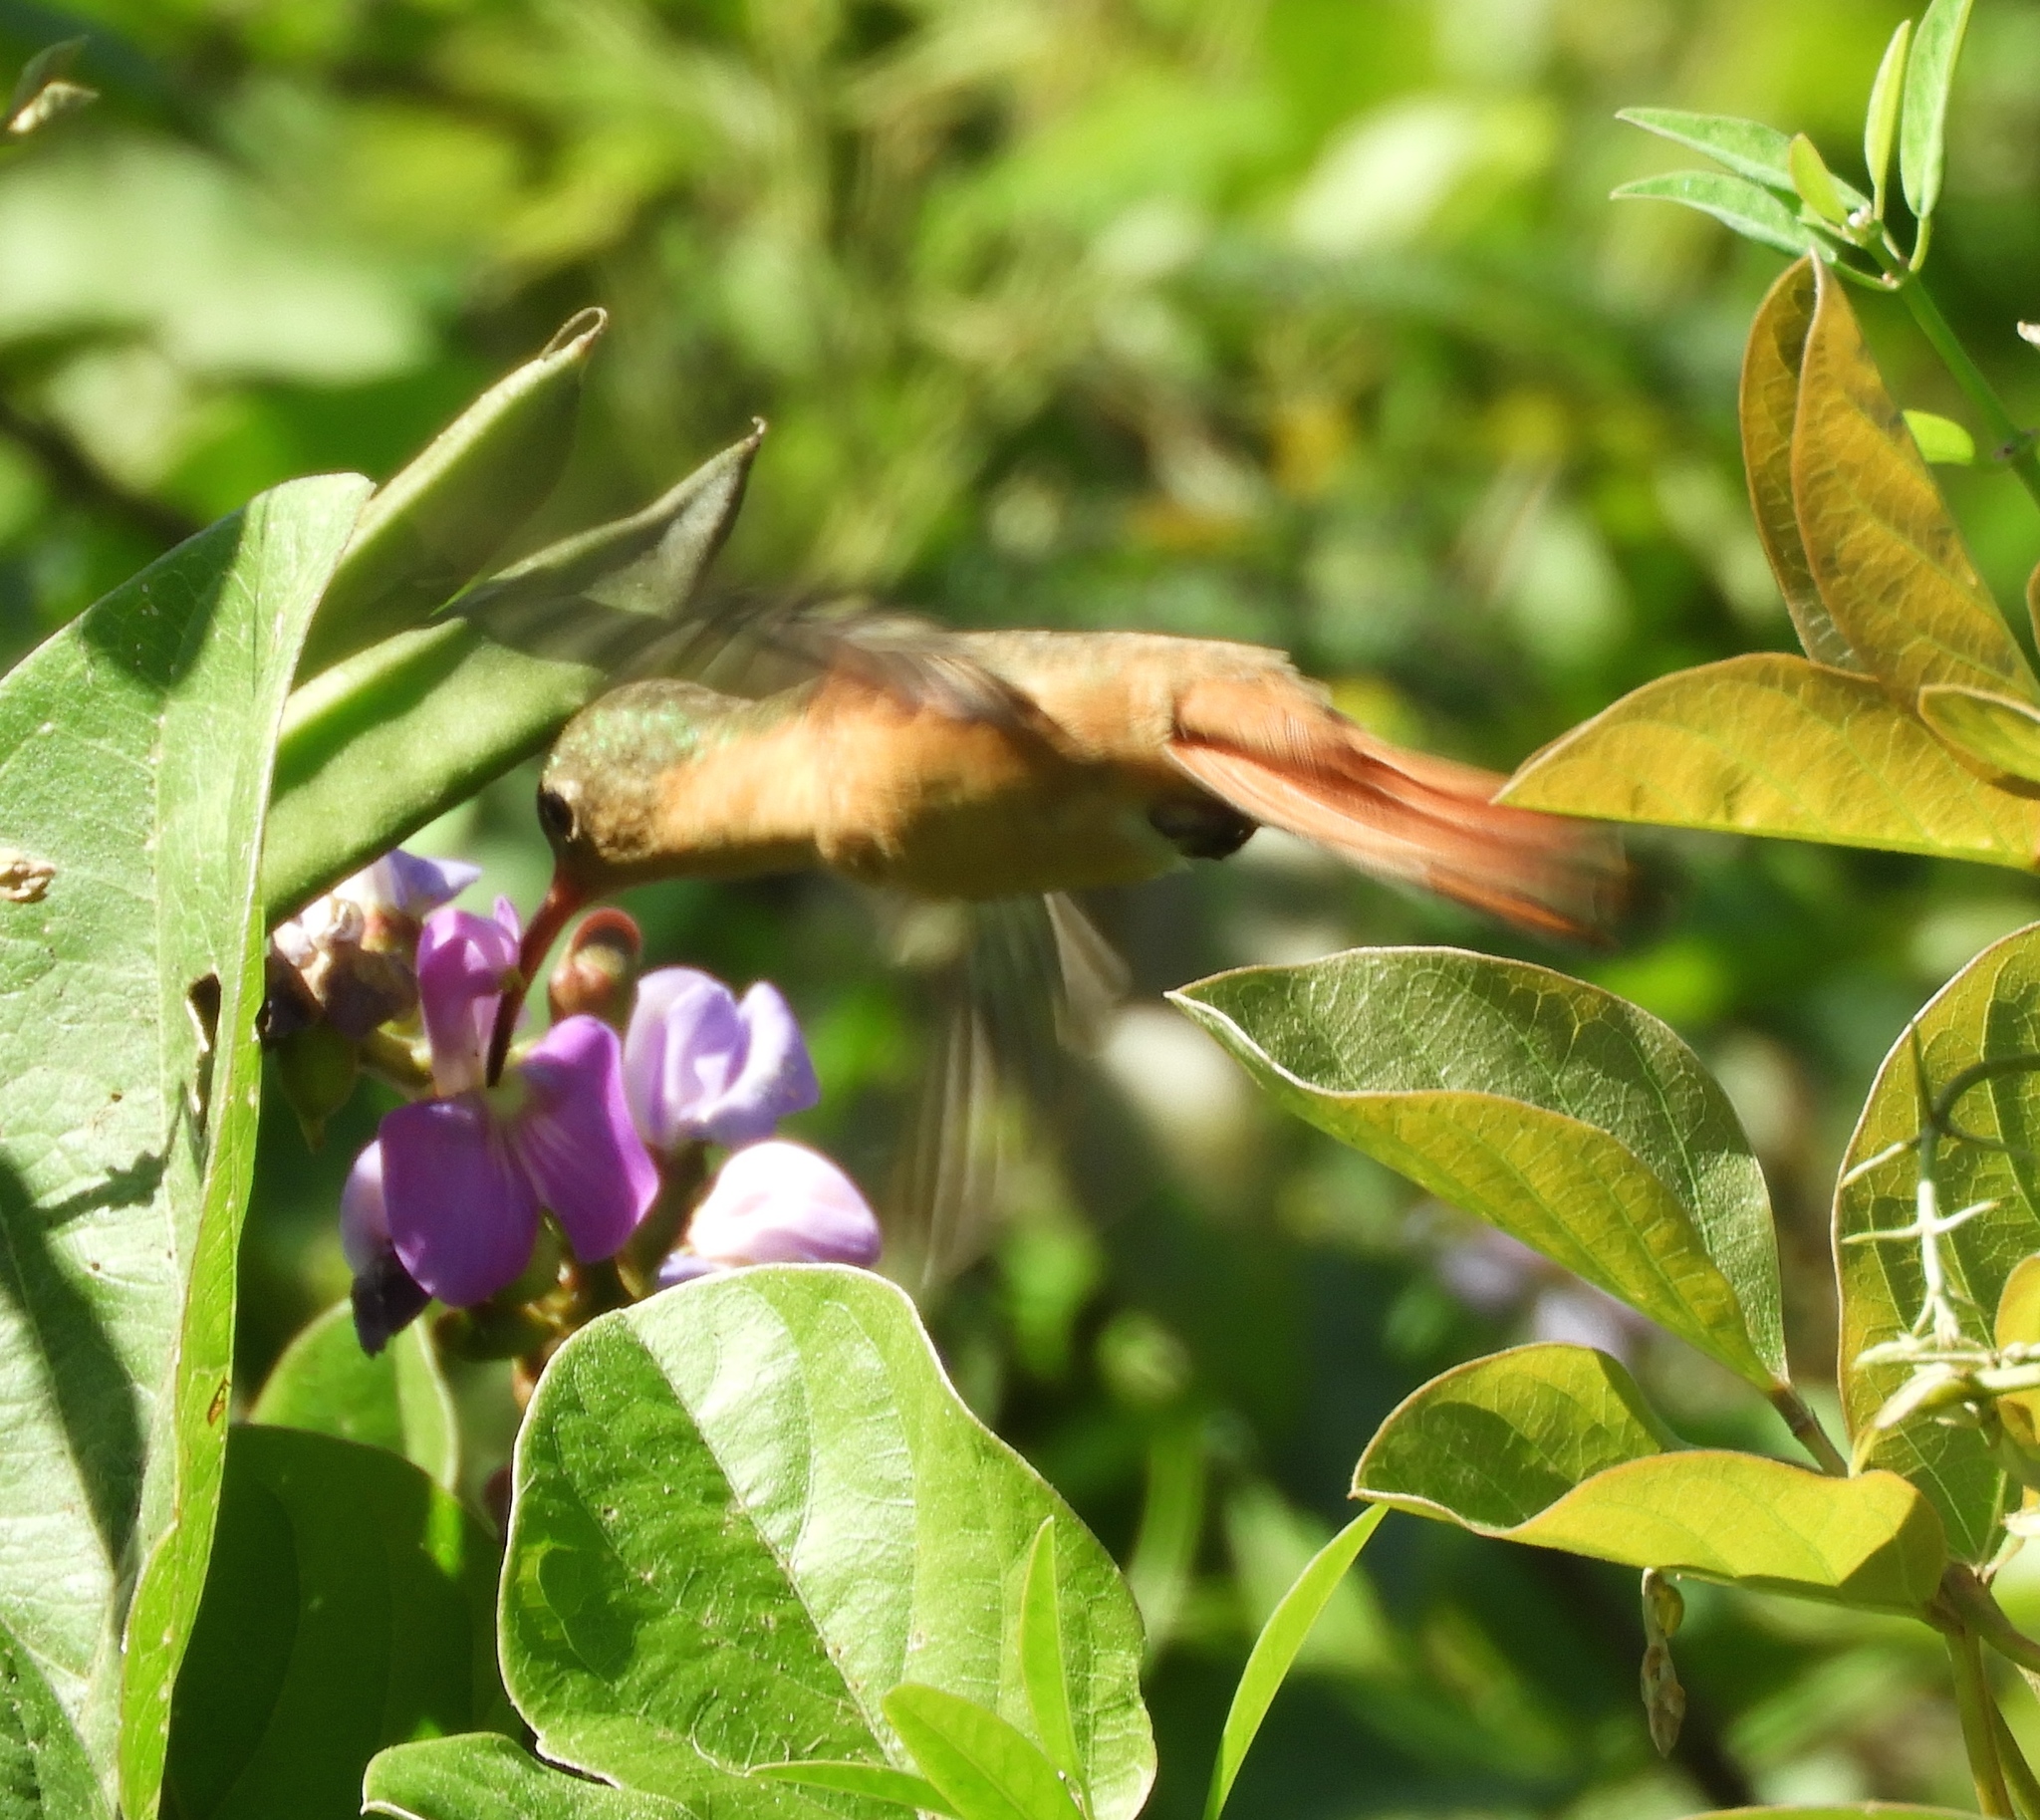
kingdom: Animalia
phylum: Chordata
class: Aves
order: Apodiformes
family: Trochilidae
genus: Amazilia
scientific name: Amazilia rutila
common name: Cinnamon hummingbird
